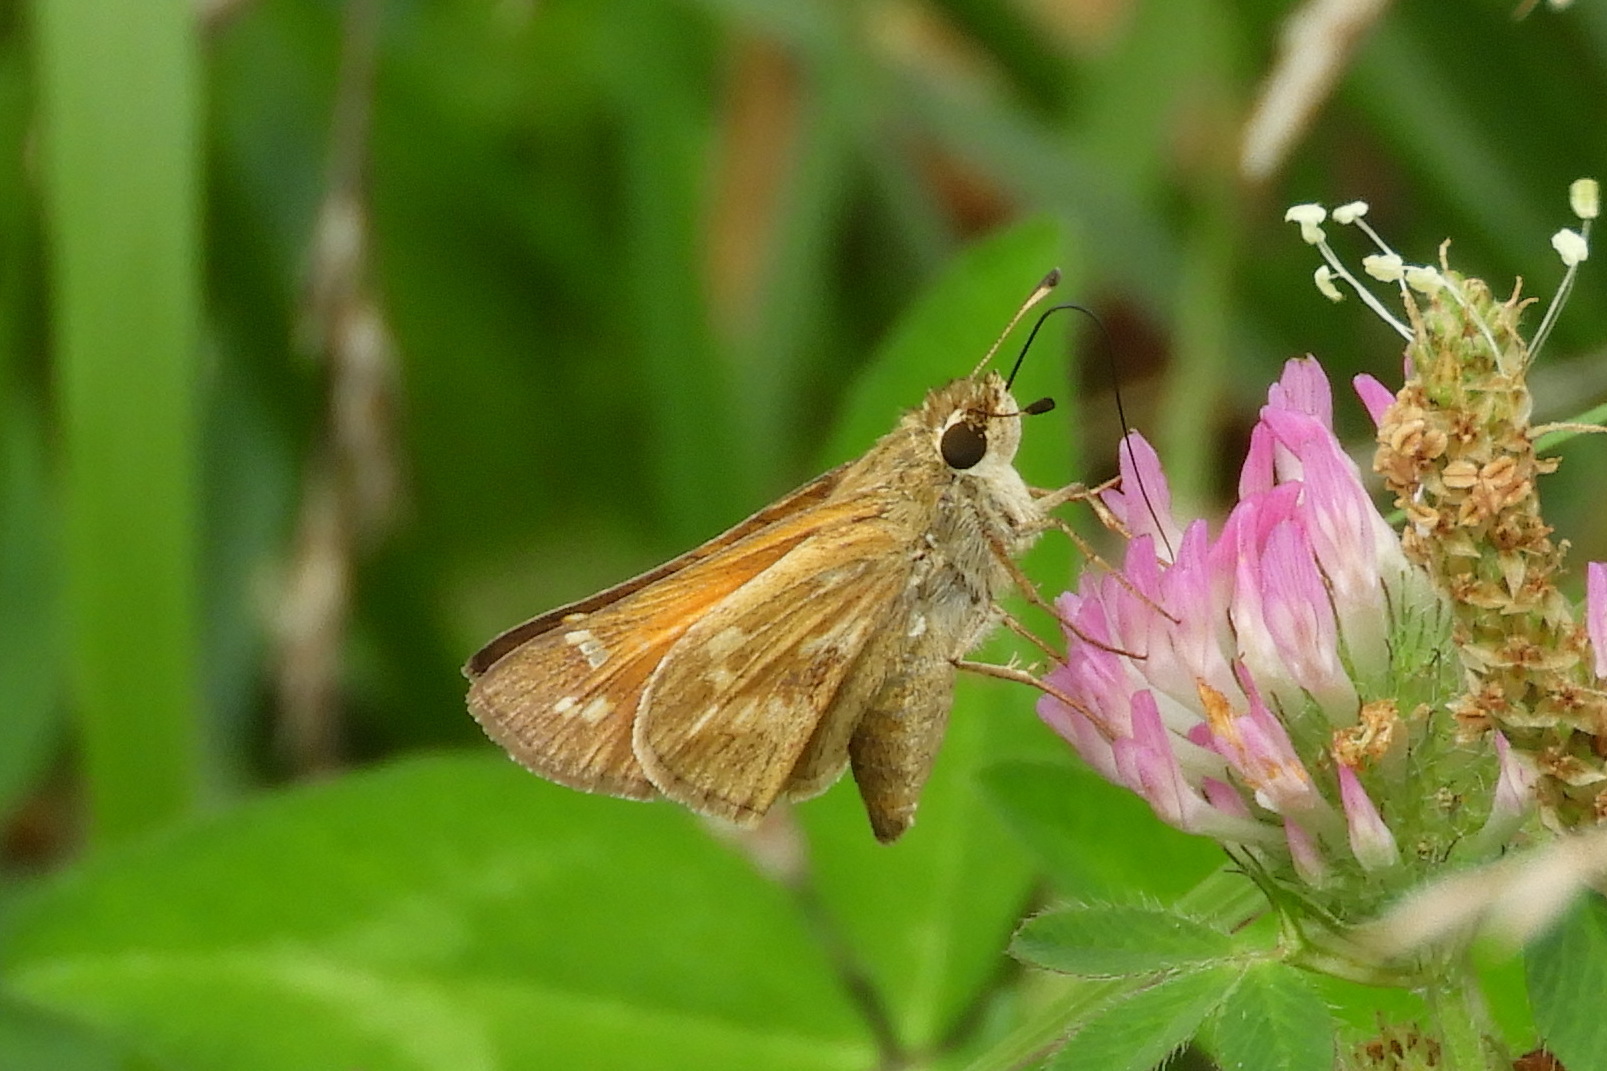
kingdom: Animalia
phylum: Arthropoda
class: Insecta
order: Lepidoptera
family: Hesperiidae
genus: Atalopedes
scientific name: Atalopedes
